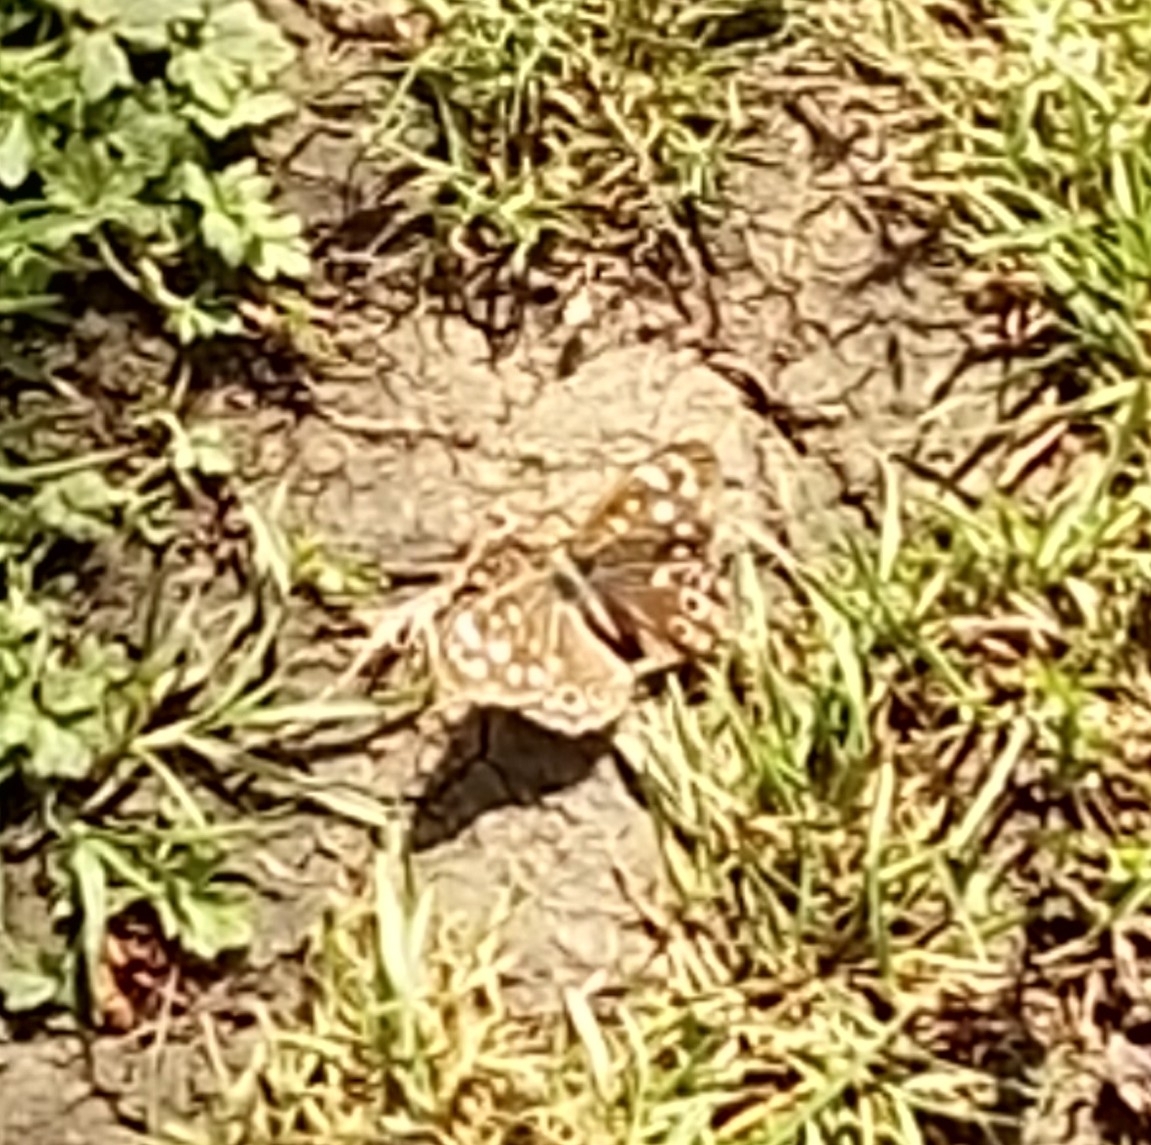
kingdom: Animalia
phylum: Arthropoda
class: Insecta
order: Lepidoptera
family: Nymphalidae
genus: Pararge
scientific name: Pararge aegeria
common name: Speckled wood
